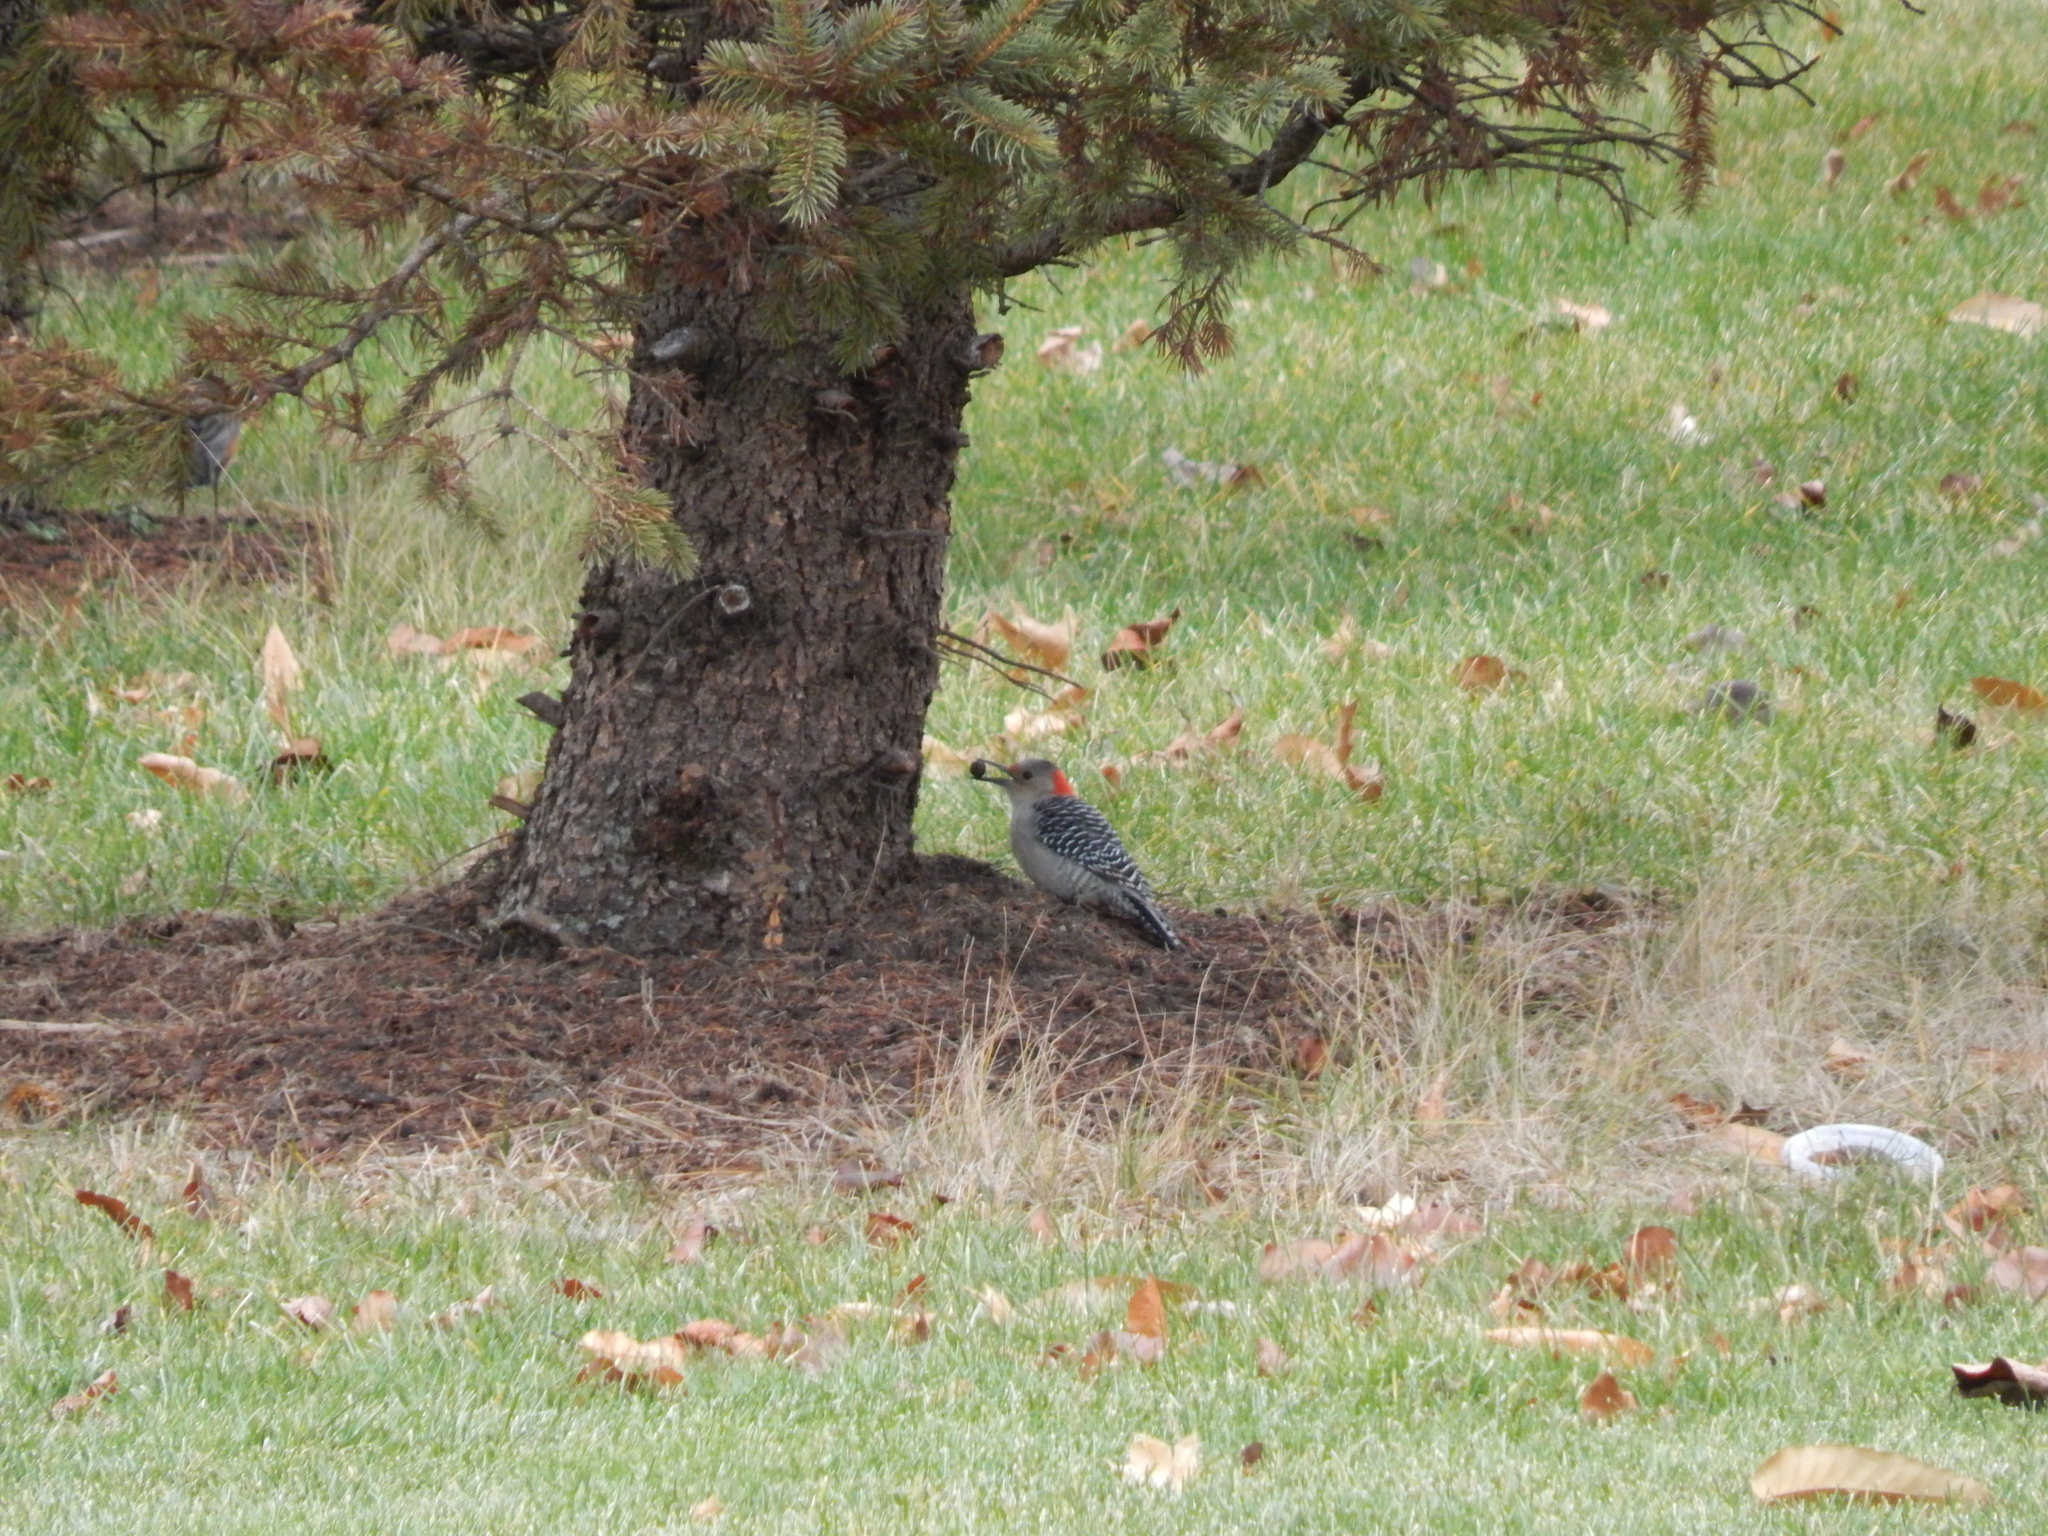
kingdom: Animalia
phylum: Chordata
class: Aves
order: Piciformes
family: Picidae
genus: Melanerpes
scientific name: Melanerpes carolinus
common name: Red-bellied woodpecker
